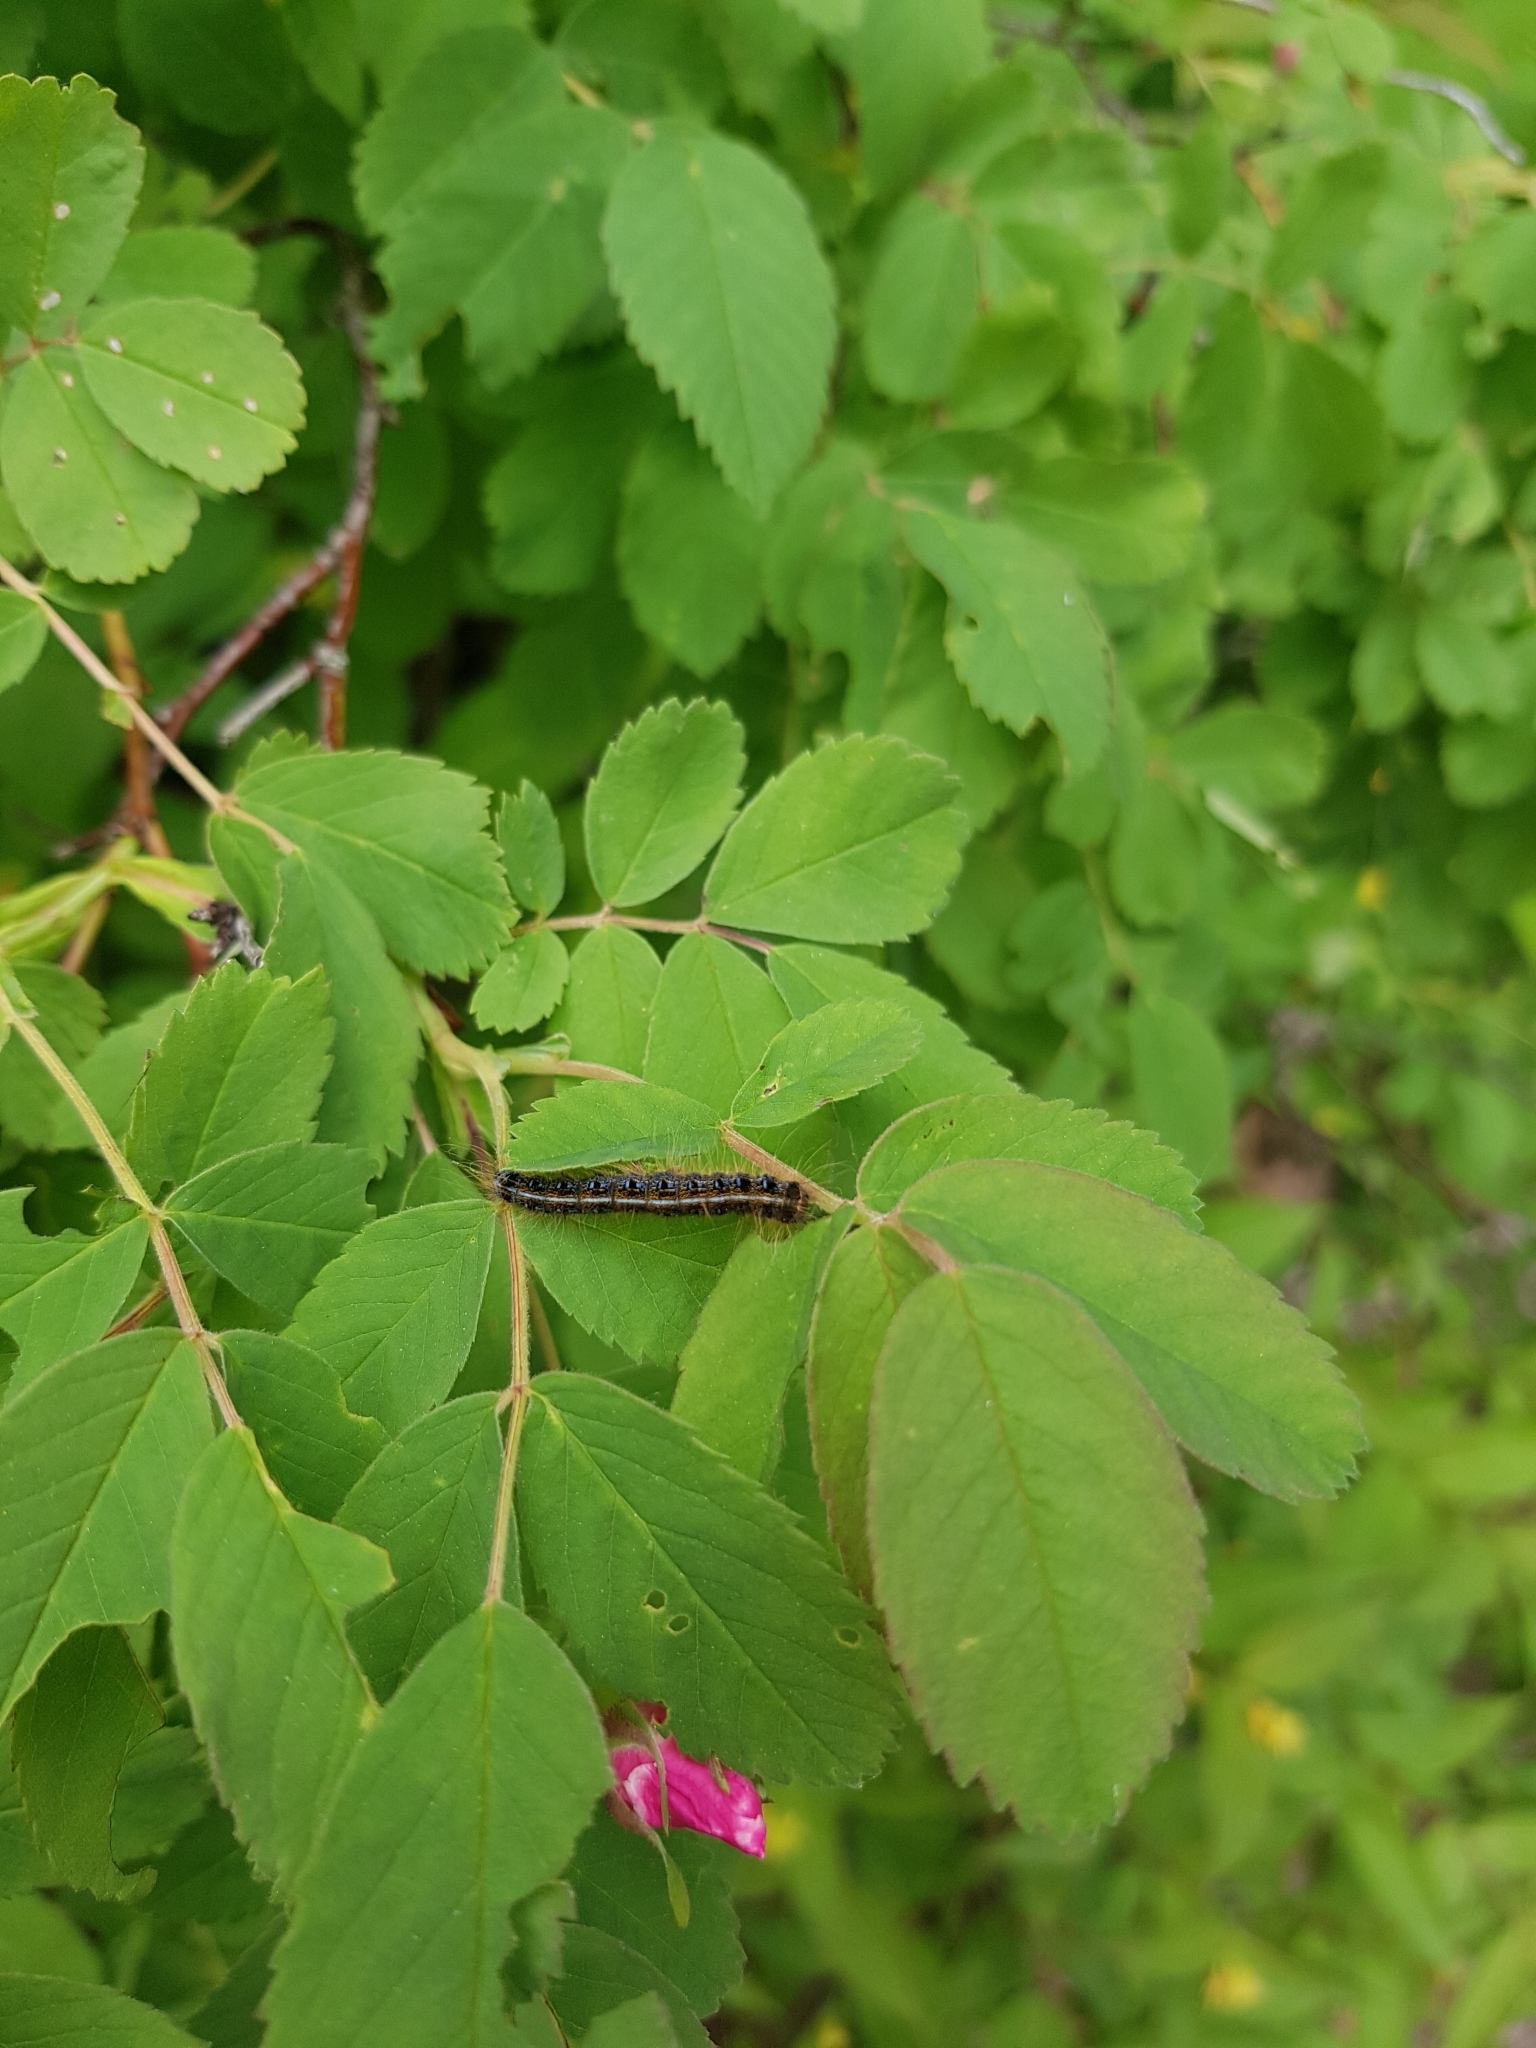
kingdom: Animalia
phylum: Arthropoda
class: Insecta
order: Lepidoptera
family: Lasiocampidae
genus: Malacosoma
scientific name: Malacosoma americana
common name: Eastern tent caterpillar moth
